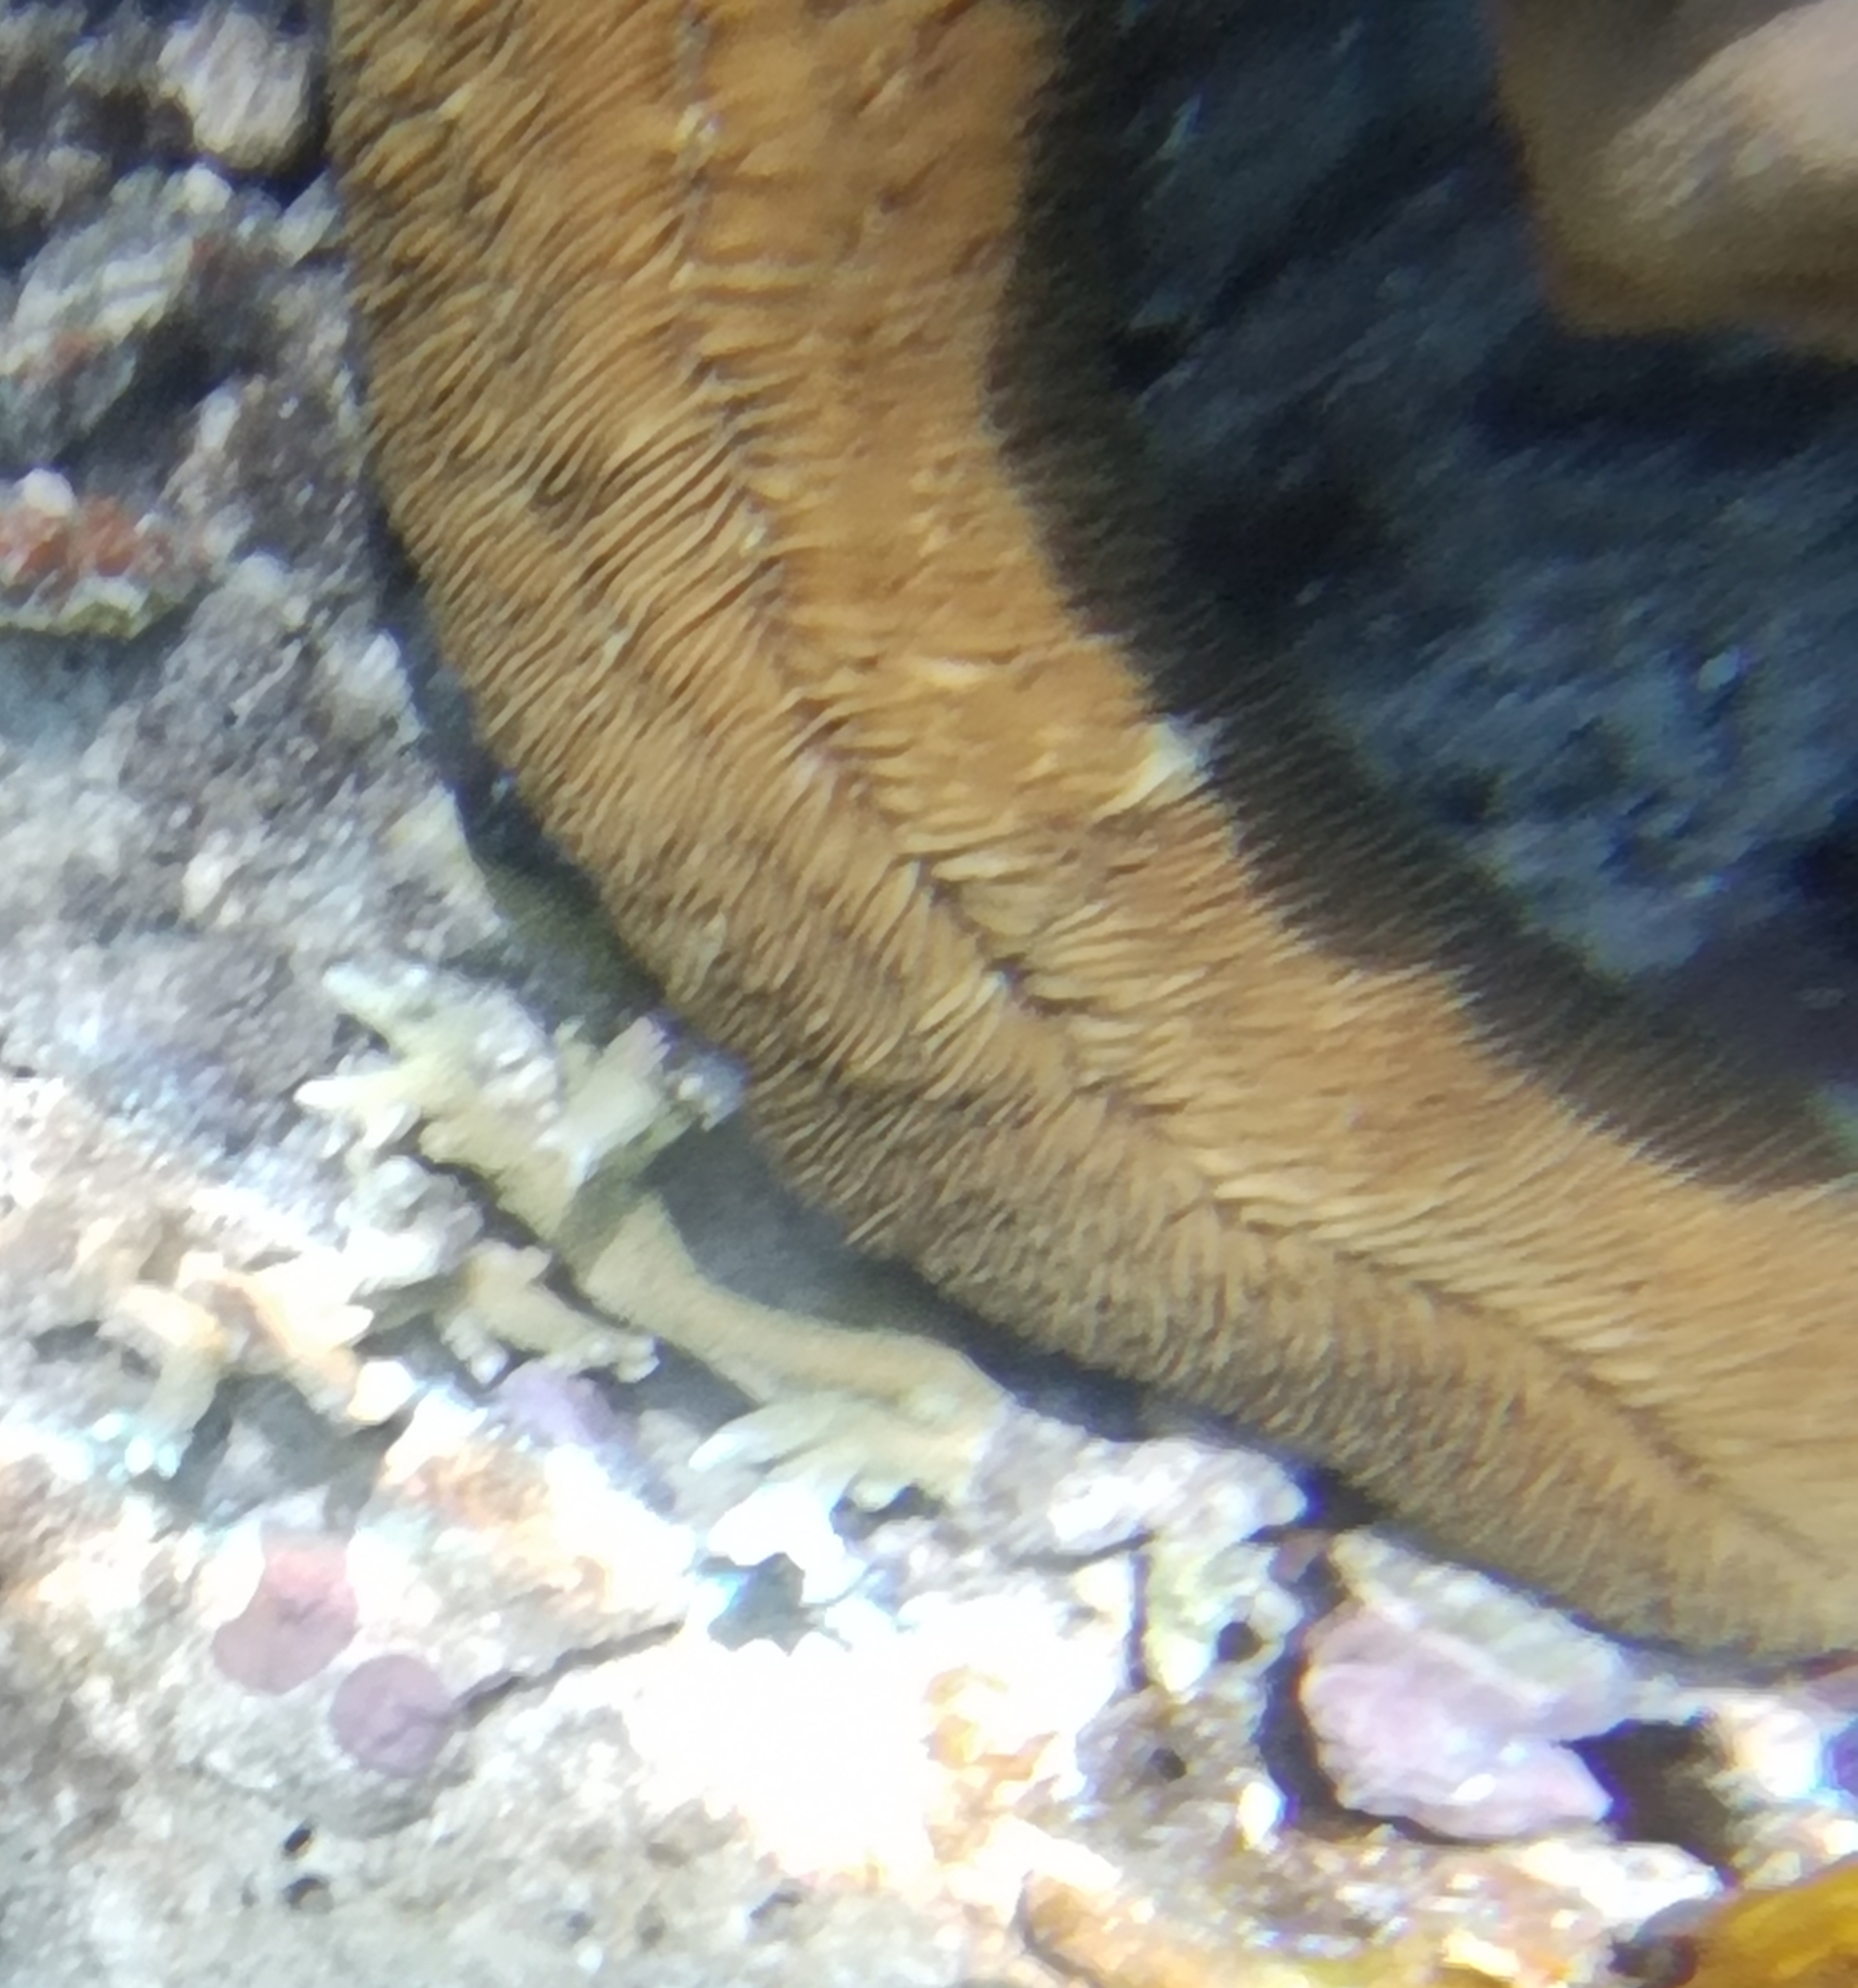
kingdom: Animalia
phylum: Cnidaria
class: Anthozoa
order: Scleractinia
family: Fungiidae
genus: Herpolitha
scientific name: Herpolitha limax
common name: Striate boomerang coral
